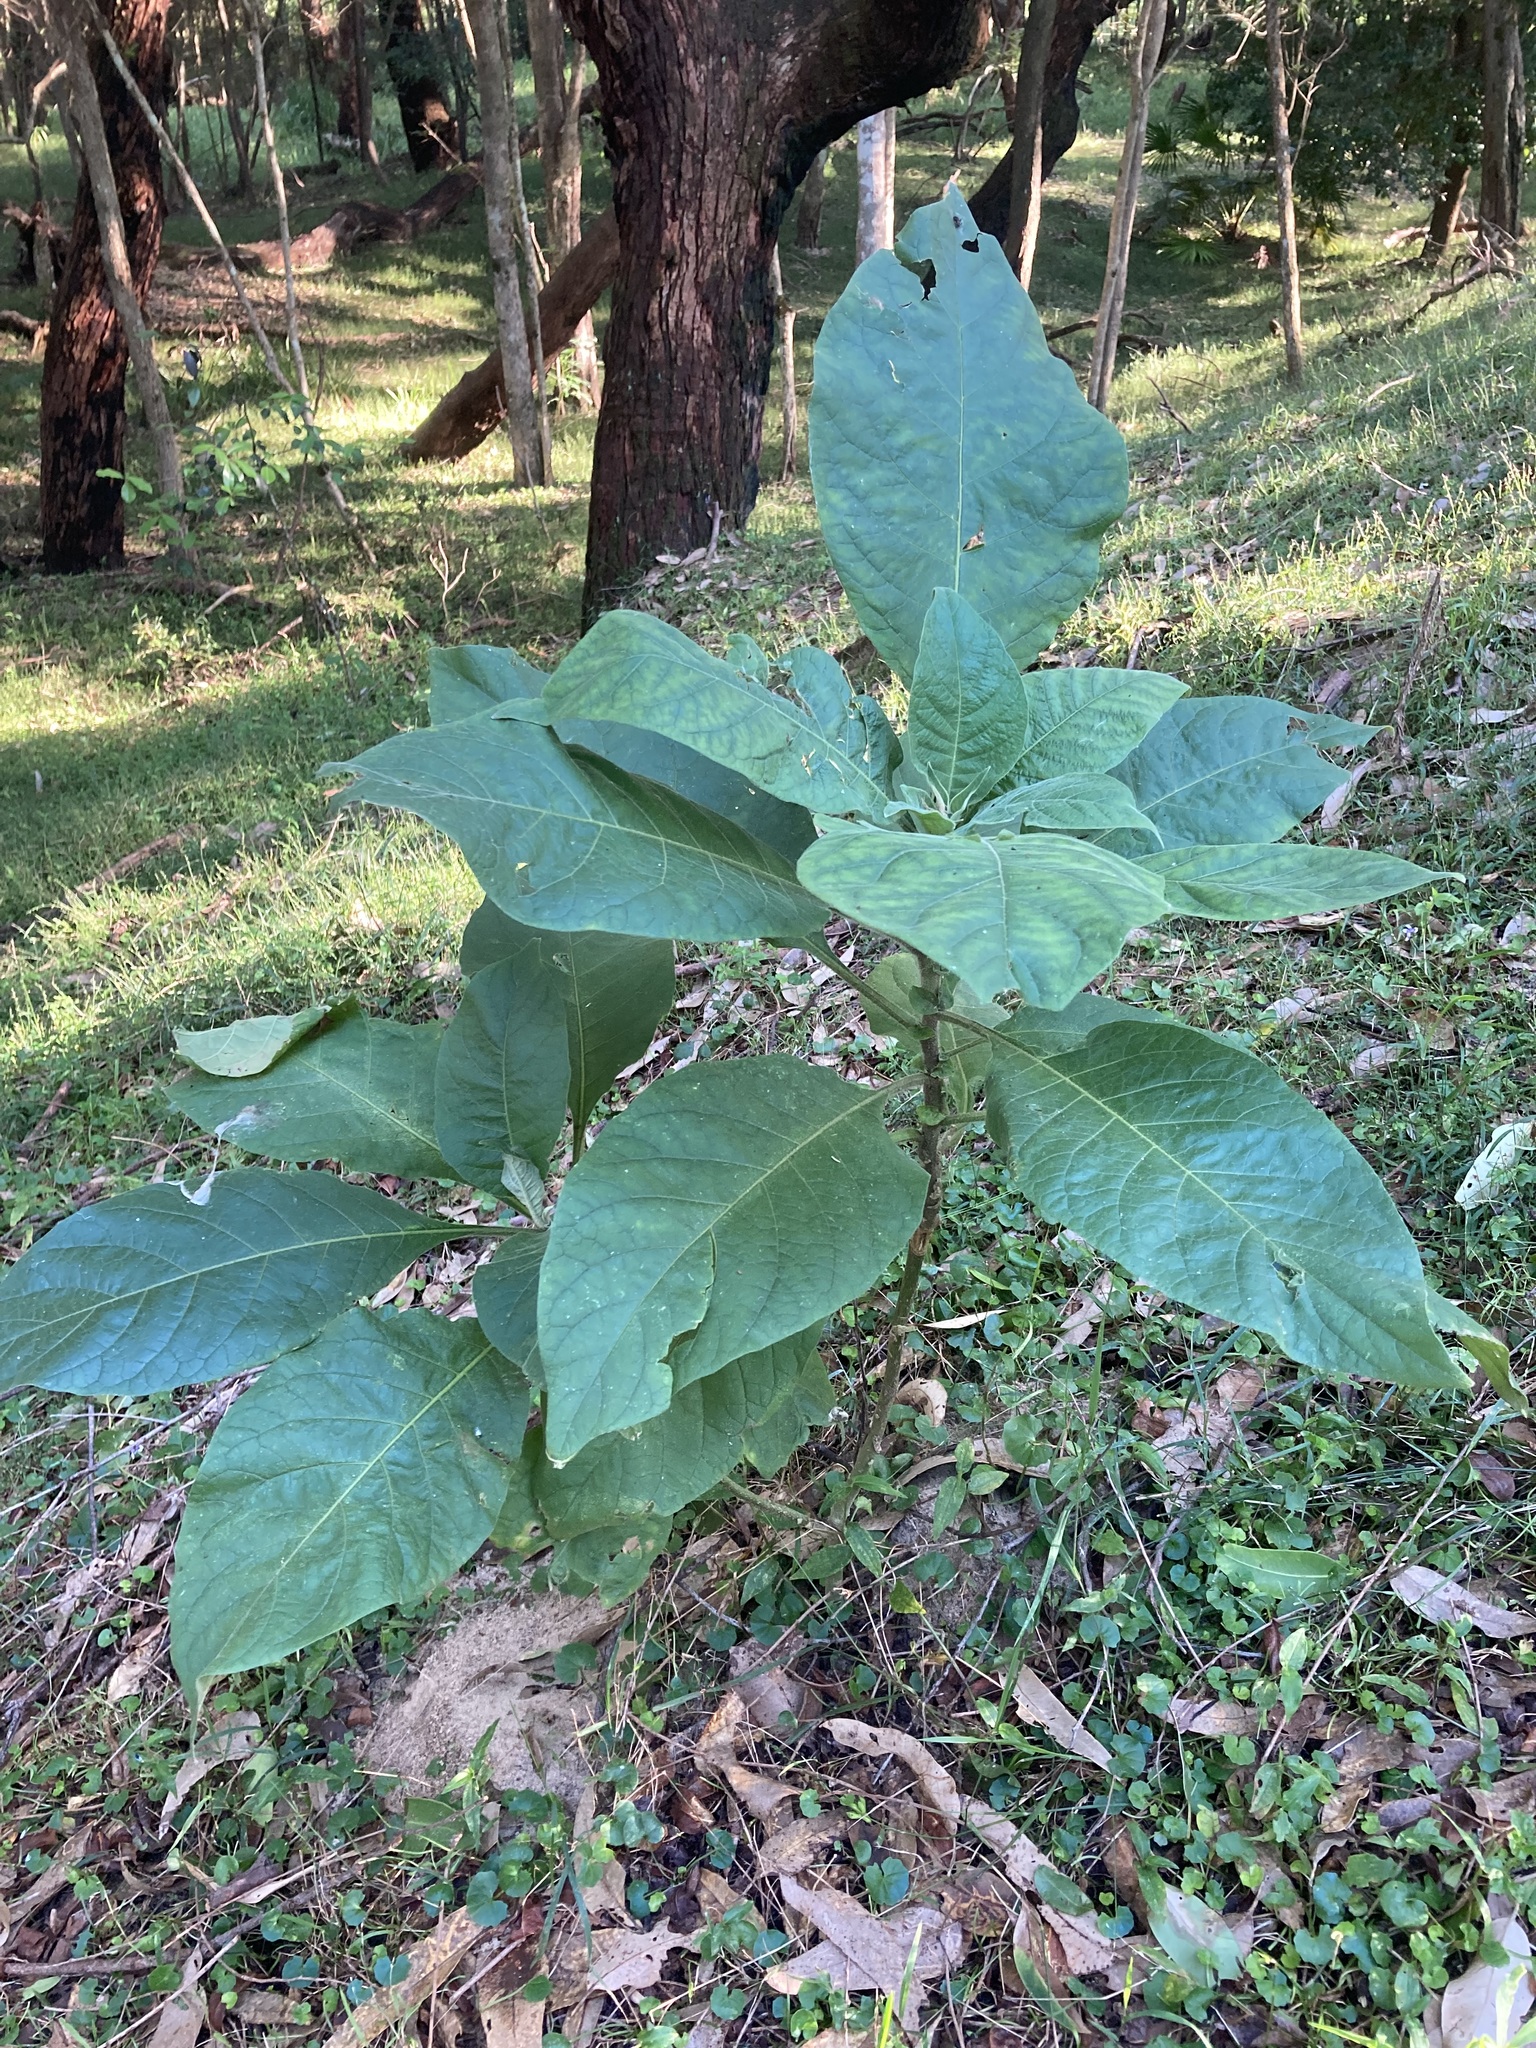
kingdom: Plantae
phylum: Tracheophyta
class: Magnoliopsida
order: Solanales
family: Solanaceae
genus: Solanum
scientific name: Solanum mauritianum
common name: Earleaf nightshade
